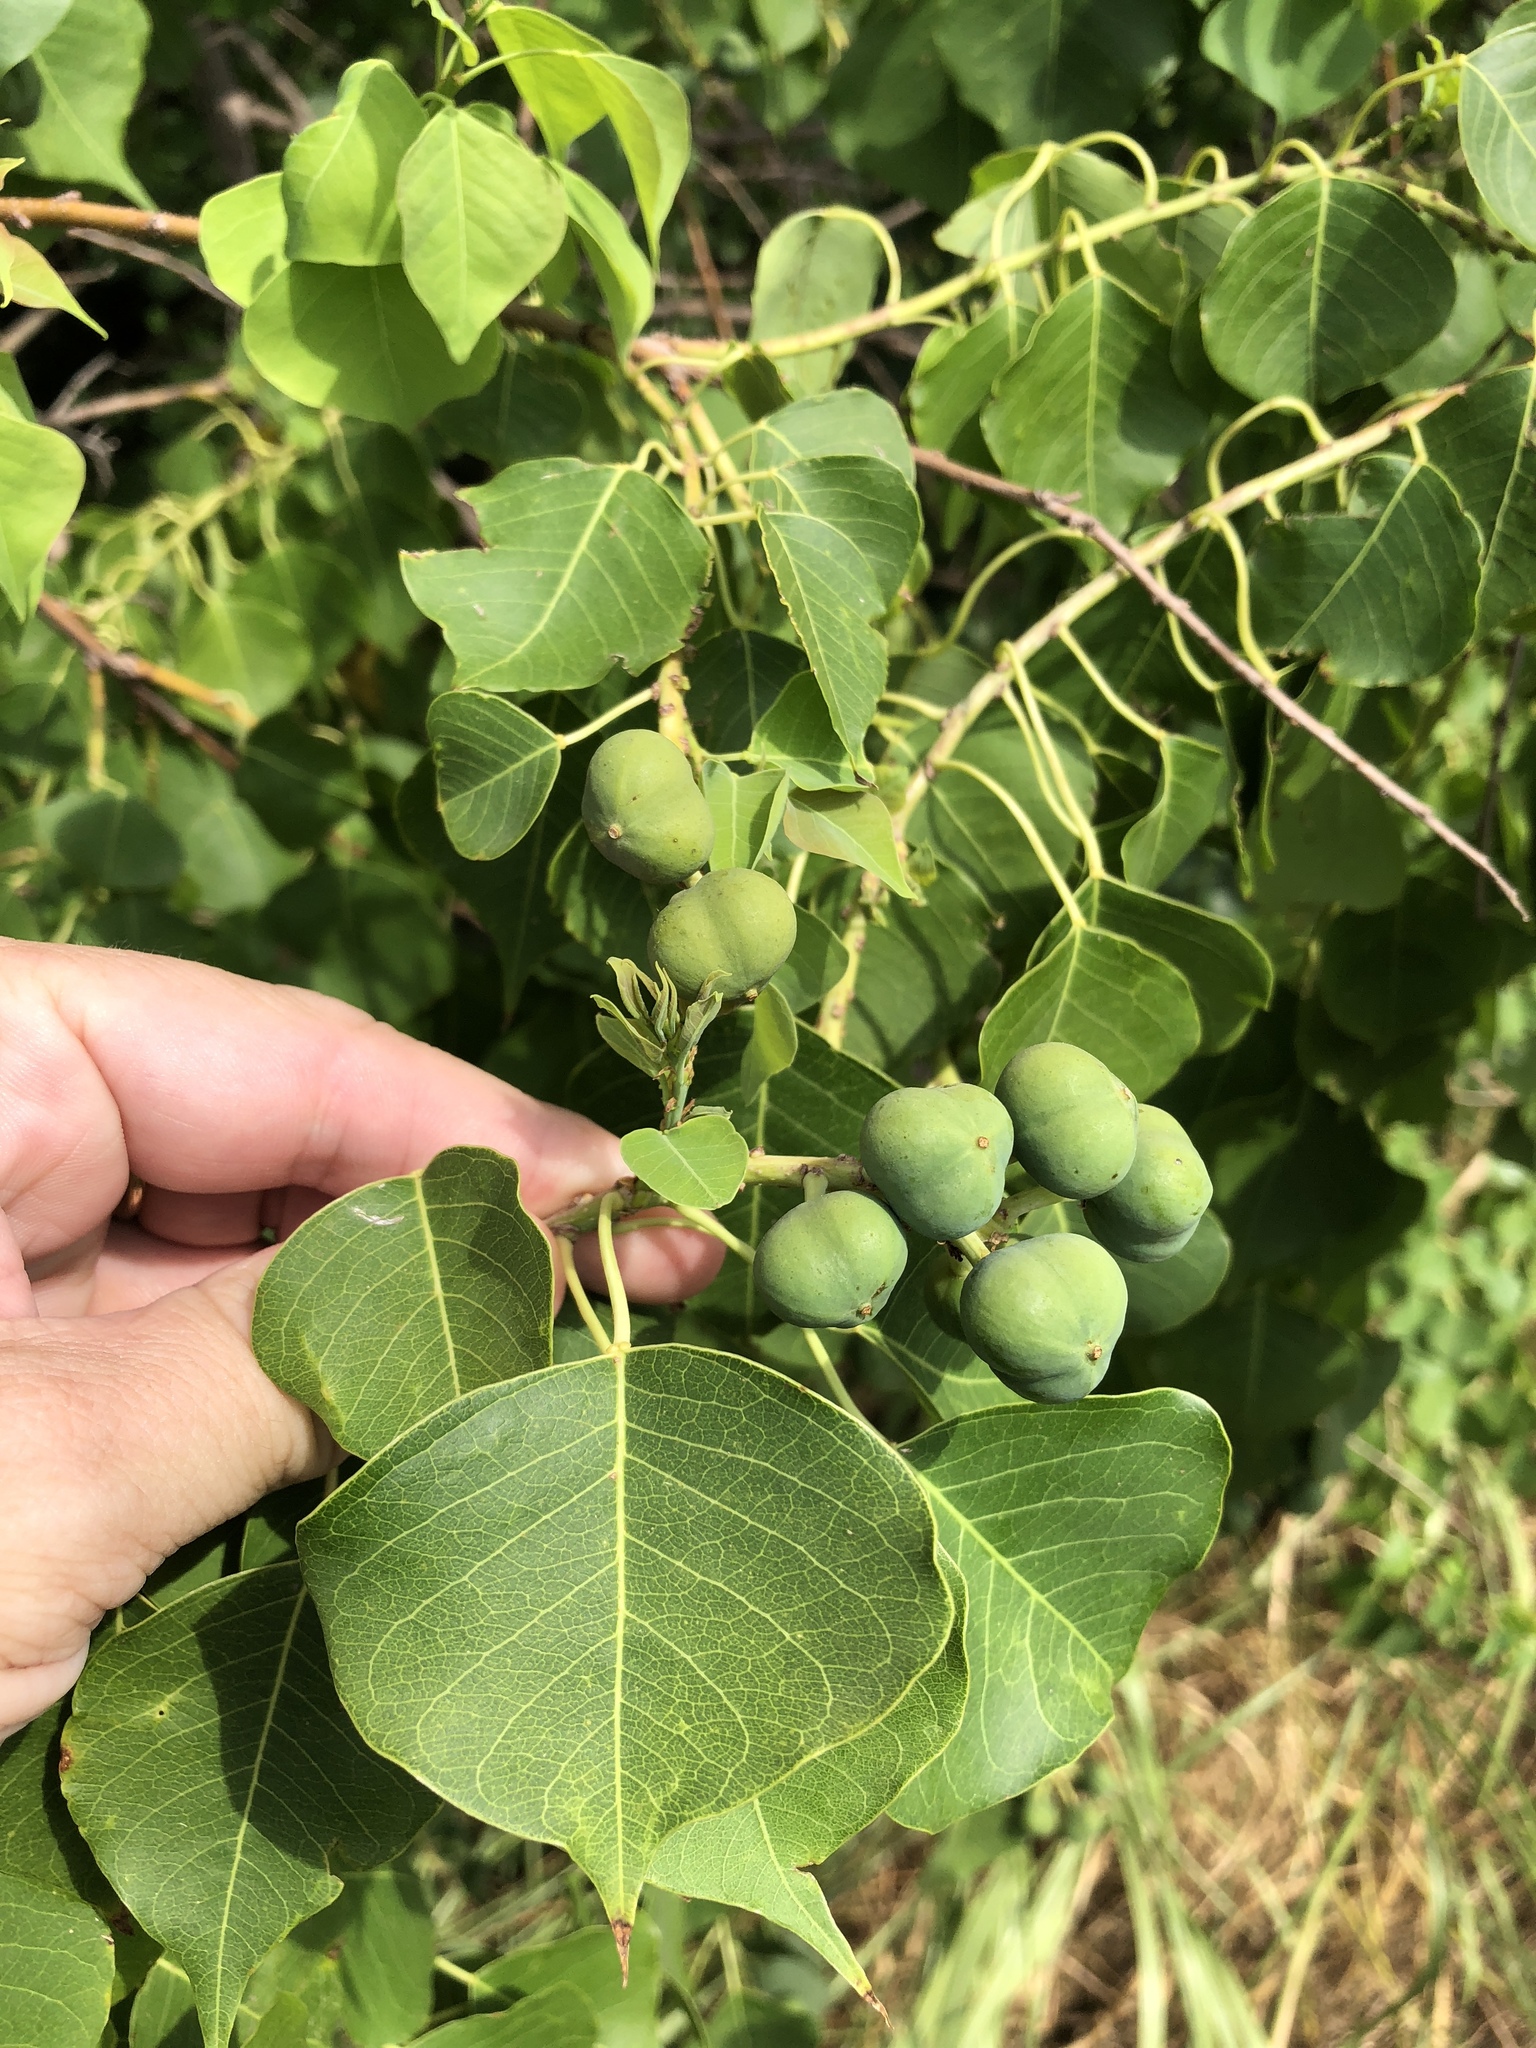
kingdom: Plantae
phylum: Tracheophyta
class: Magnoliopsida
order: Malpighiales
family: Euphorbiaceae
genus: Triadica
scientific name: Triadica sebifera
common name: Chinese tallow
